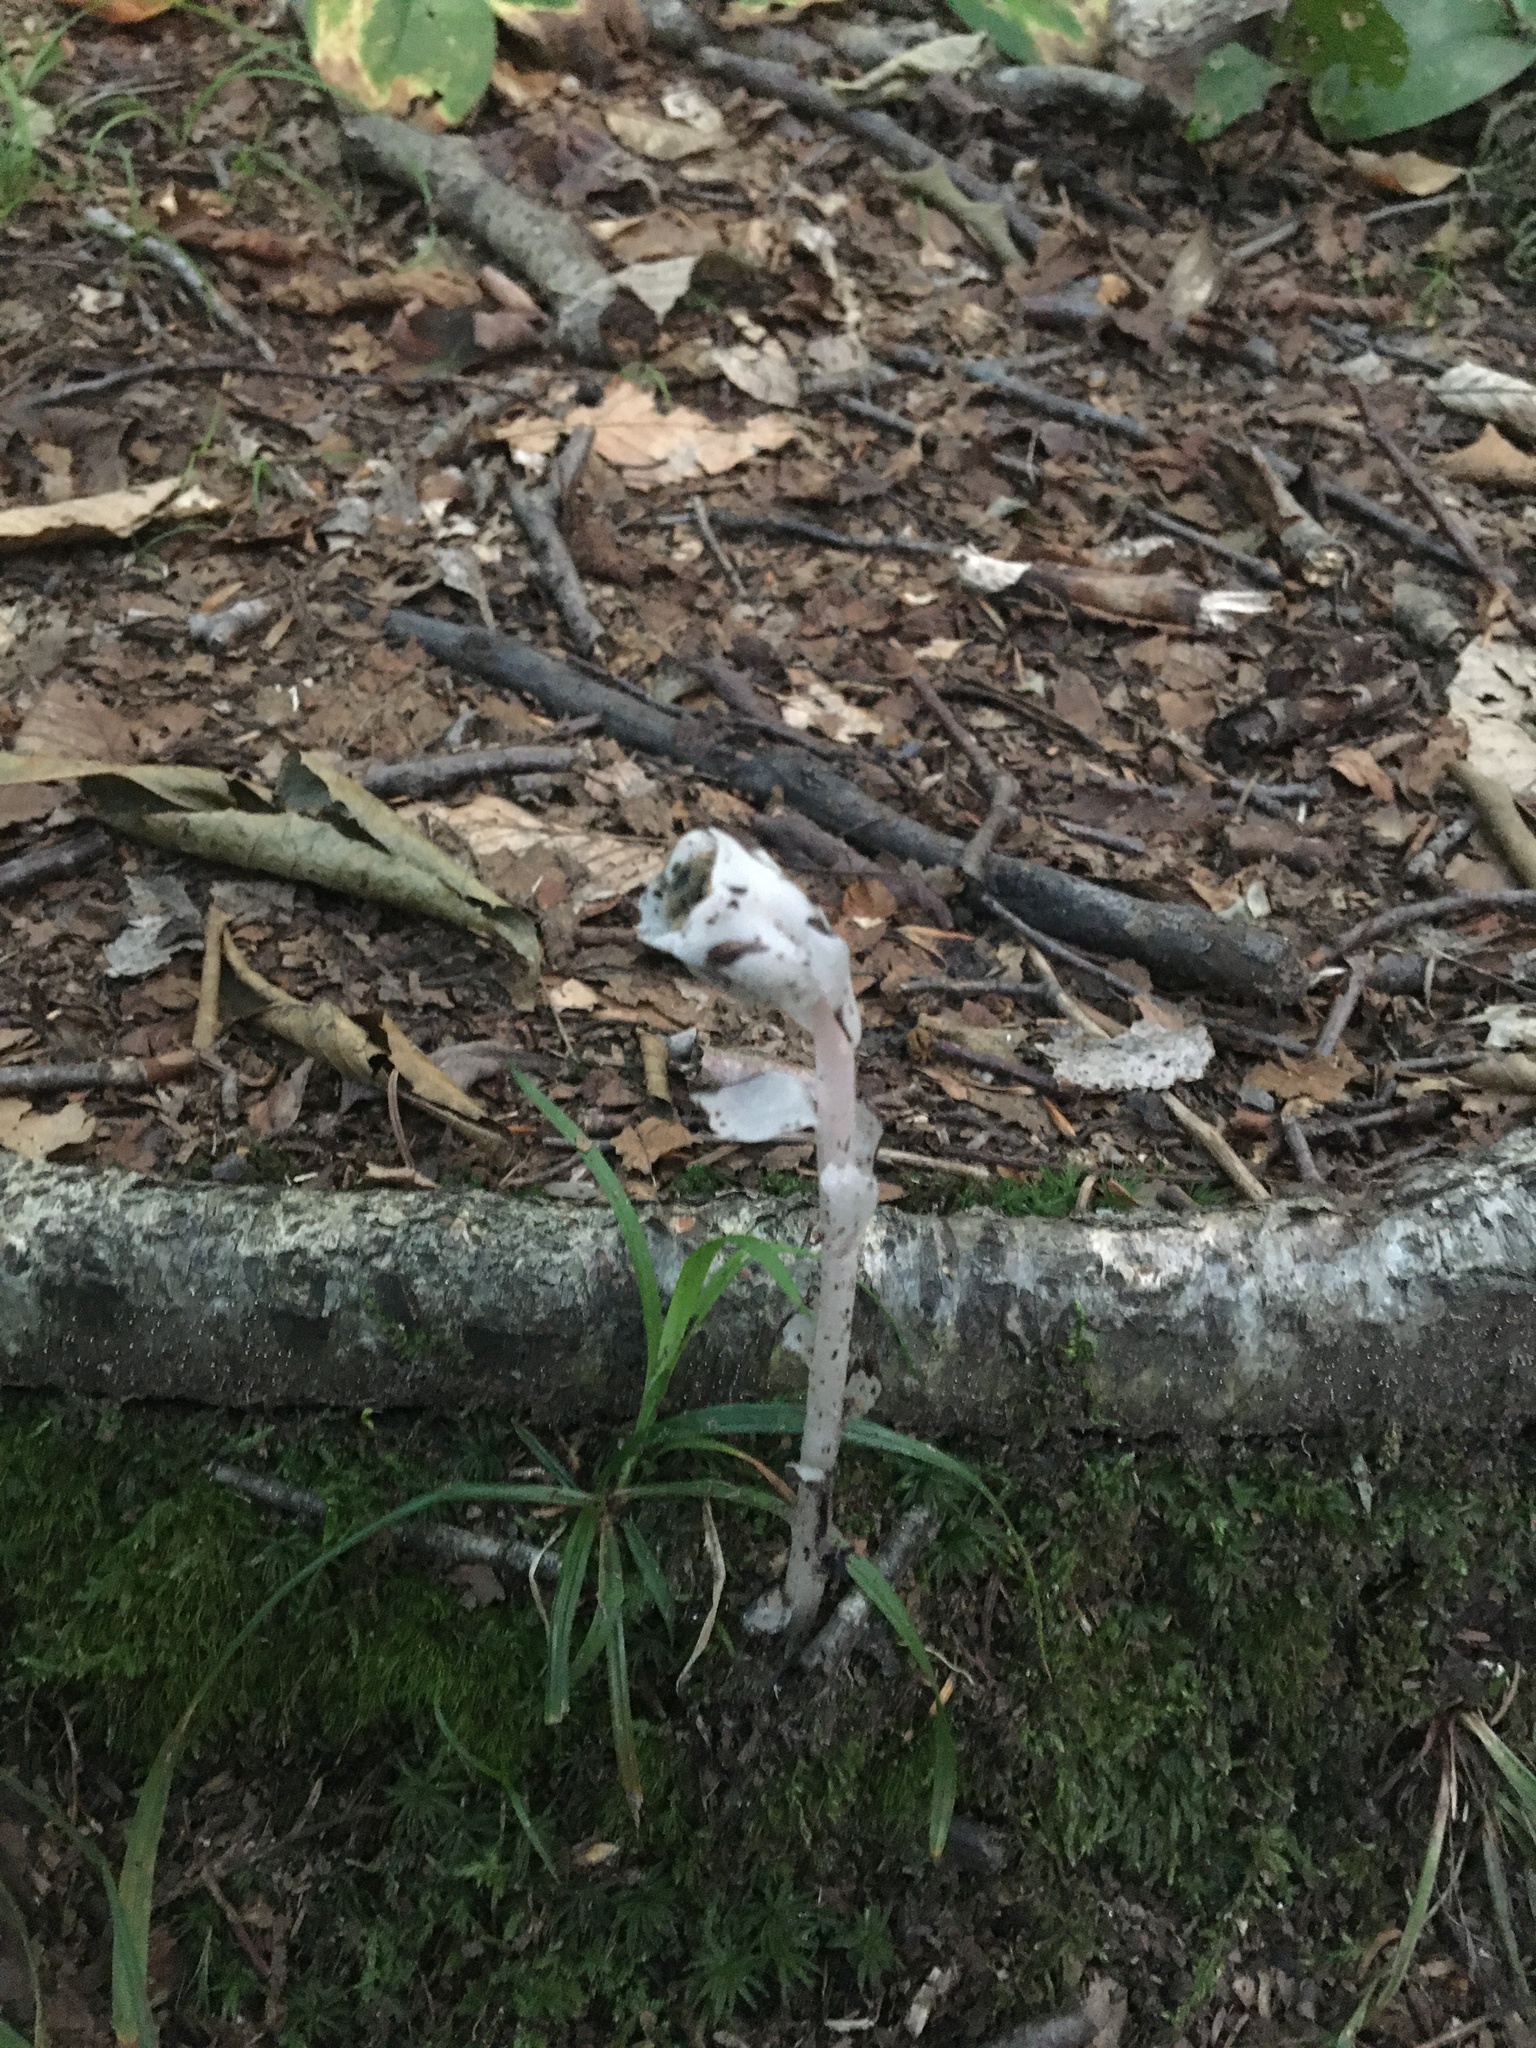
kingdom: Plantae
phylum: Tracheophyta
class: Magnoliopsida
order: Ericales
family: Ericaceae
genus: Monotropa
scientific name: Monotropa uniflora
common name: Convulsion root
